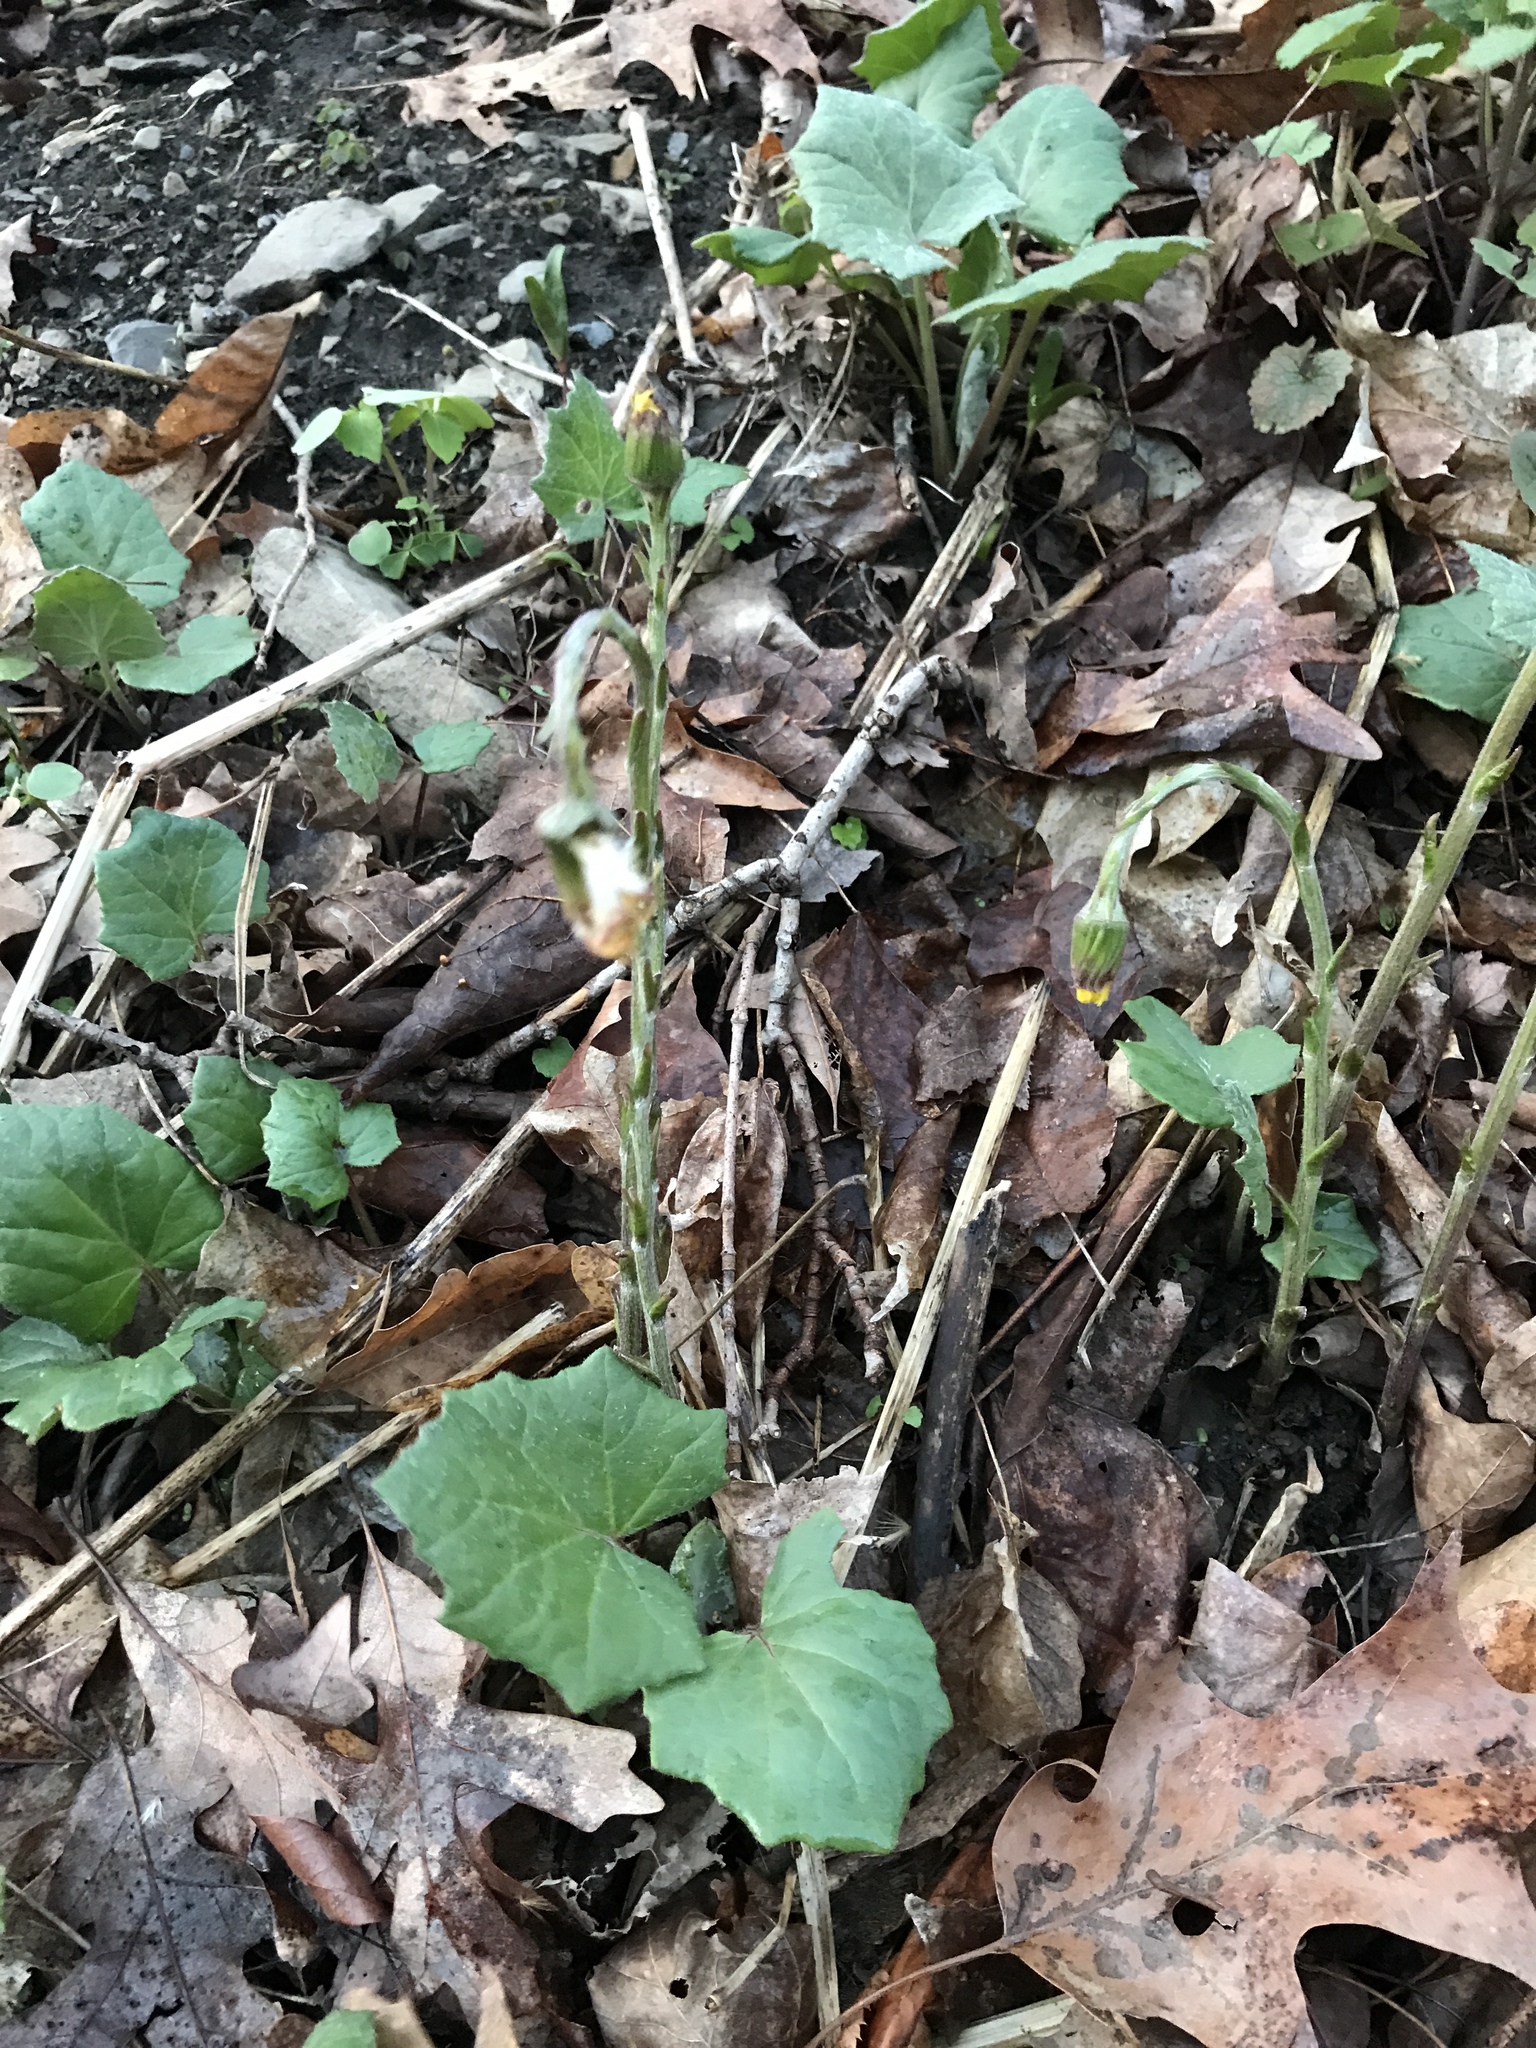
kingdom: Plantae
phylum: Tracheophyta
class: Magnoliopsida
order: Asterales
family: Asteraceae
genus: Tussilago
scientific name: Tussilago farfara
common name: Coltsfoot
